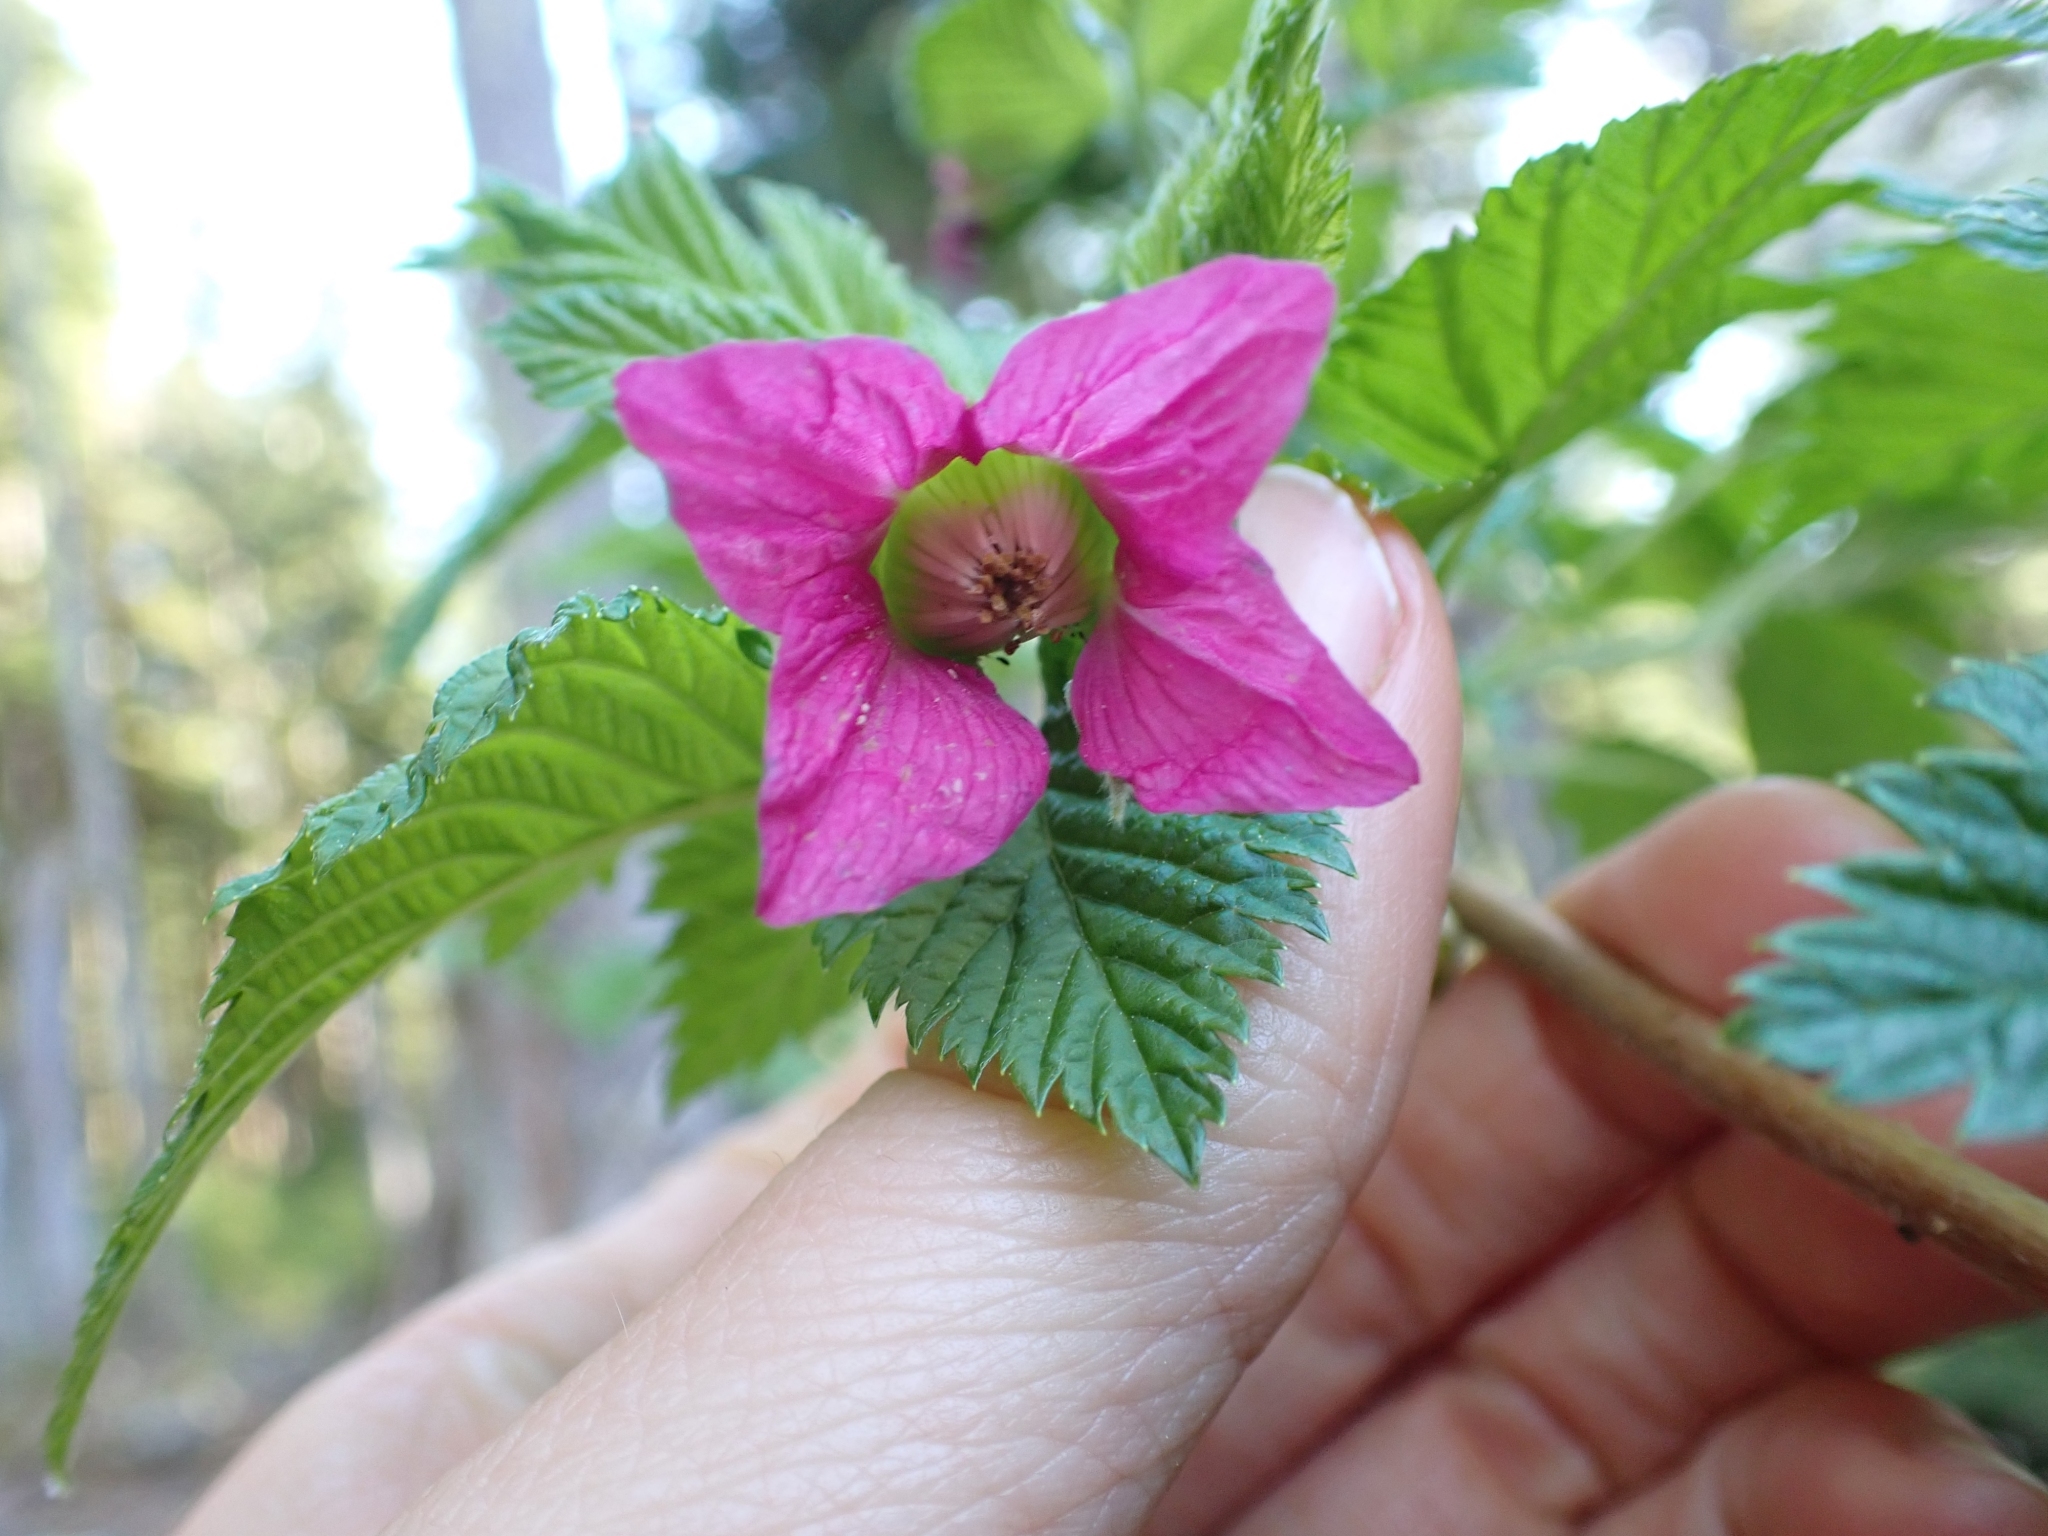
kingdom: Plantae
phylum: Tracheophyta
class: Magnoliopsida
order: Rosales
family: Rosaceae
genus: Rubus
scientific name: Rubus spectabilis
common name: Salmonberry
